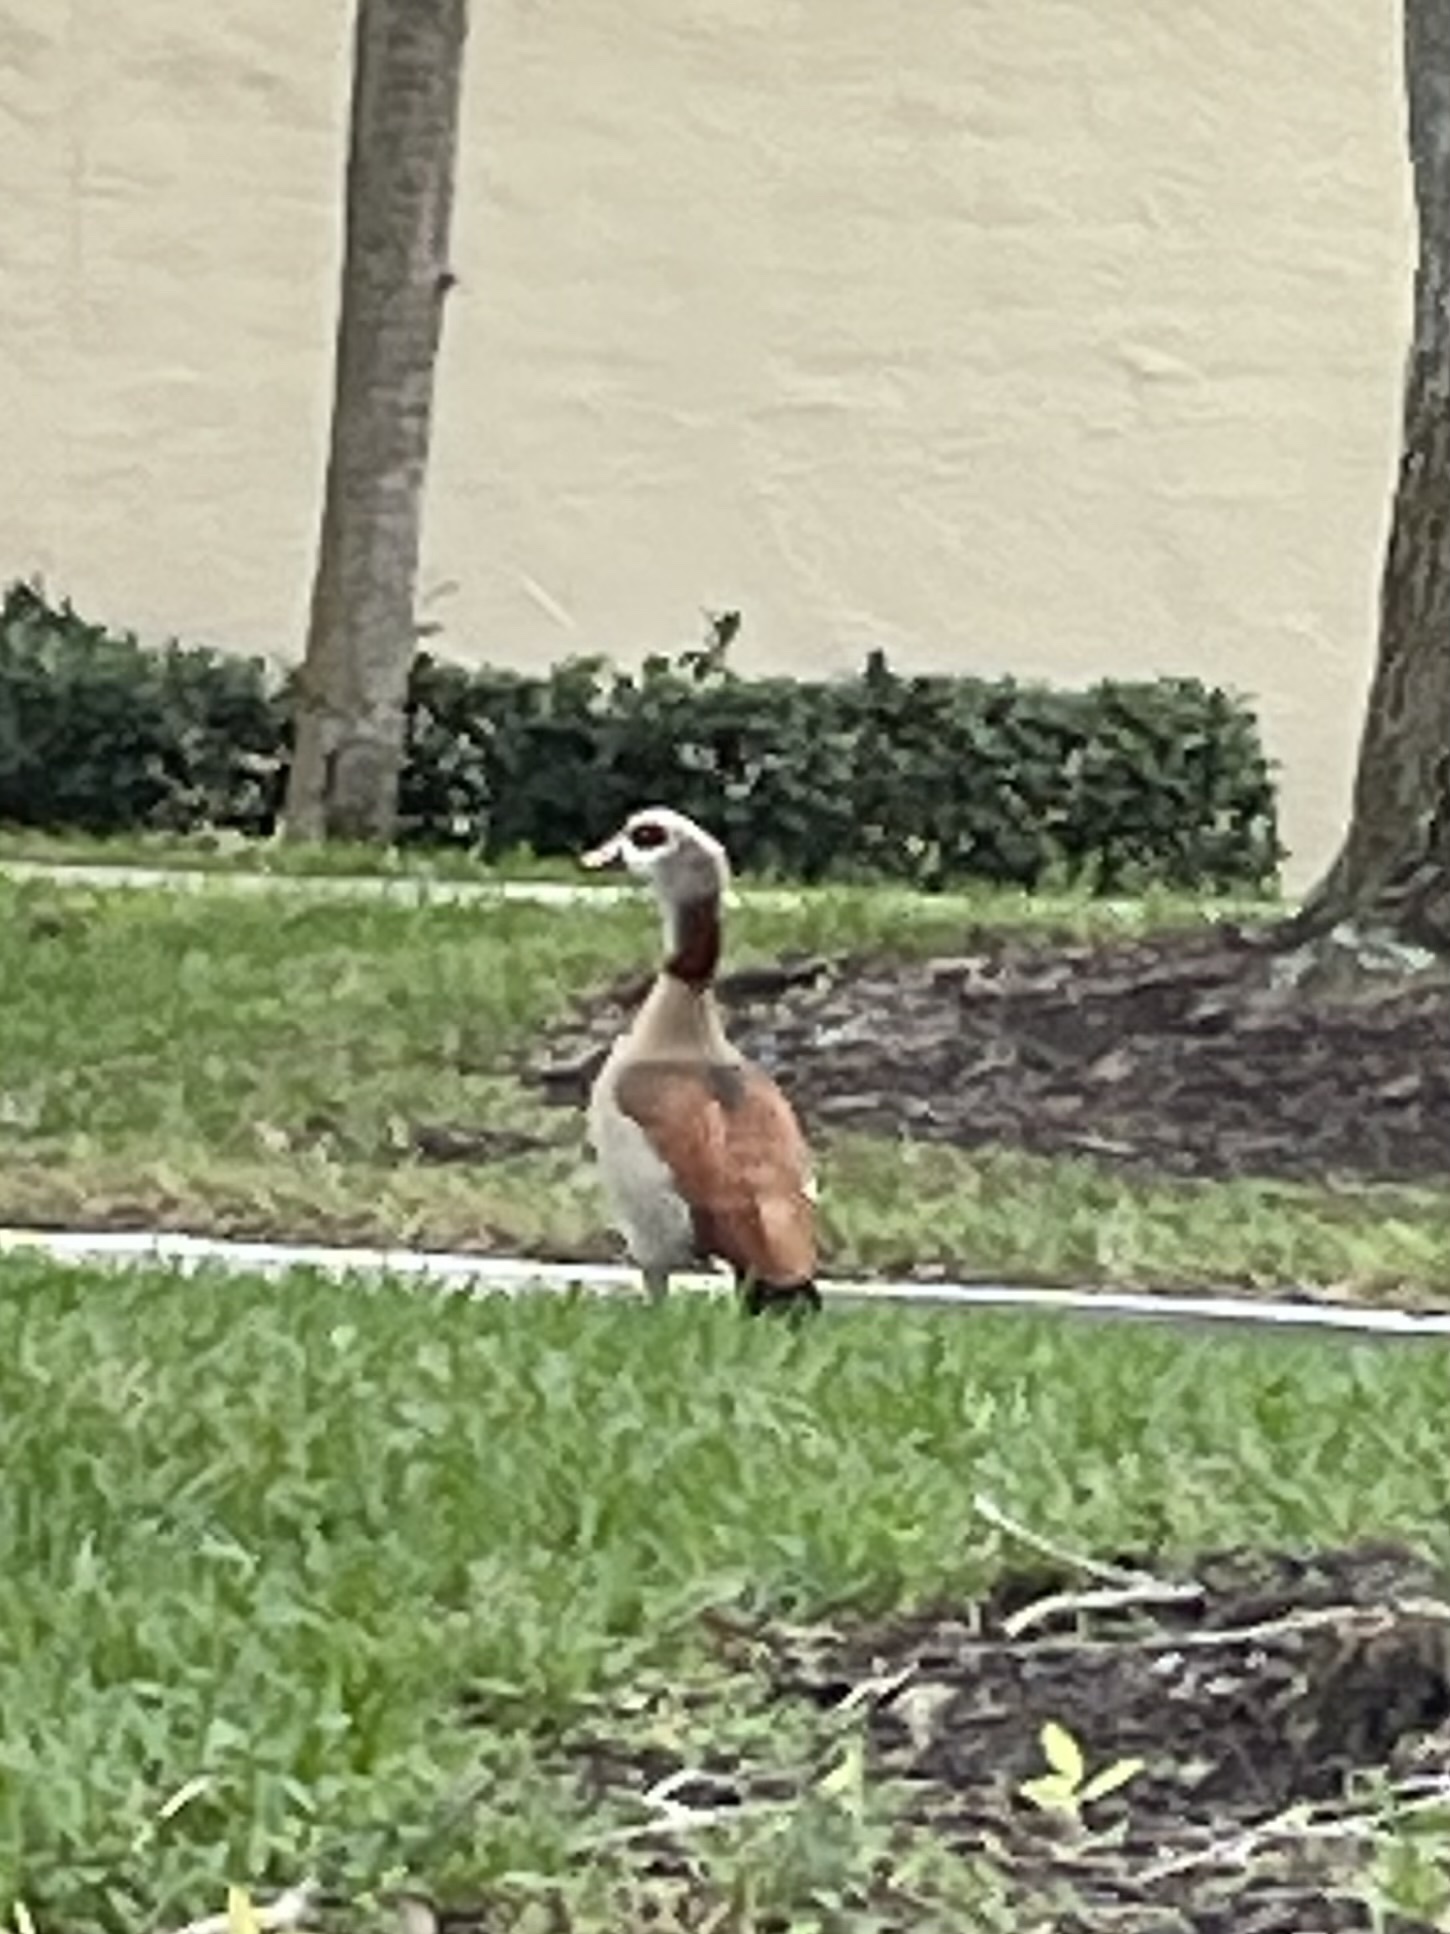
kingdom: Animalia
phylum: Chordata
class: Aves
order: Anseriformes
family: Anatidae
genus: Alopochen
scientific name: Alopochen aegyptiaca
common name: Egyptian goose
